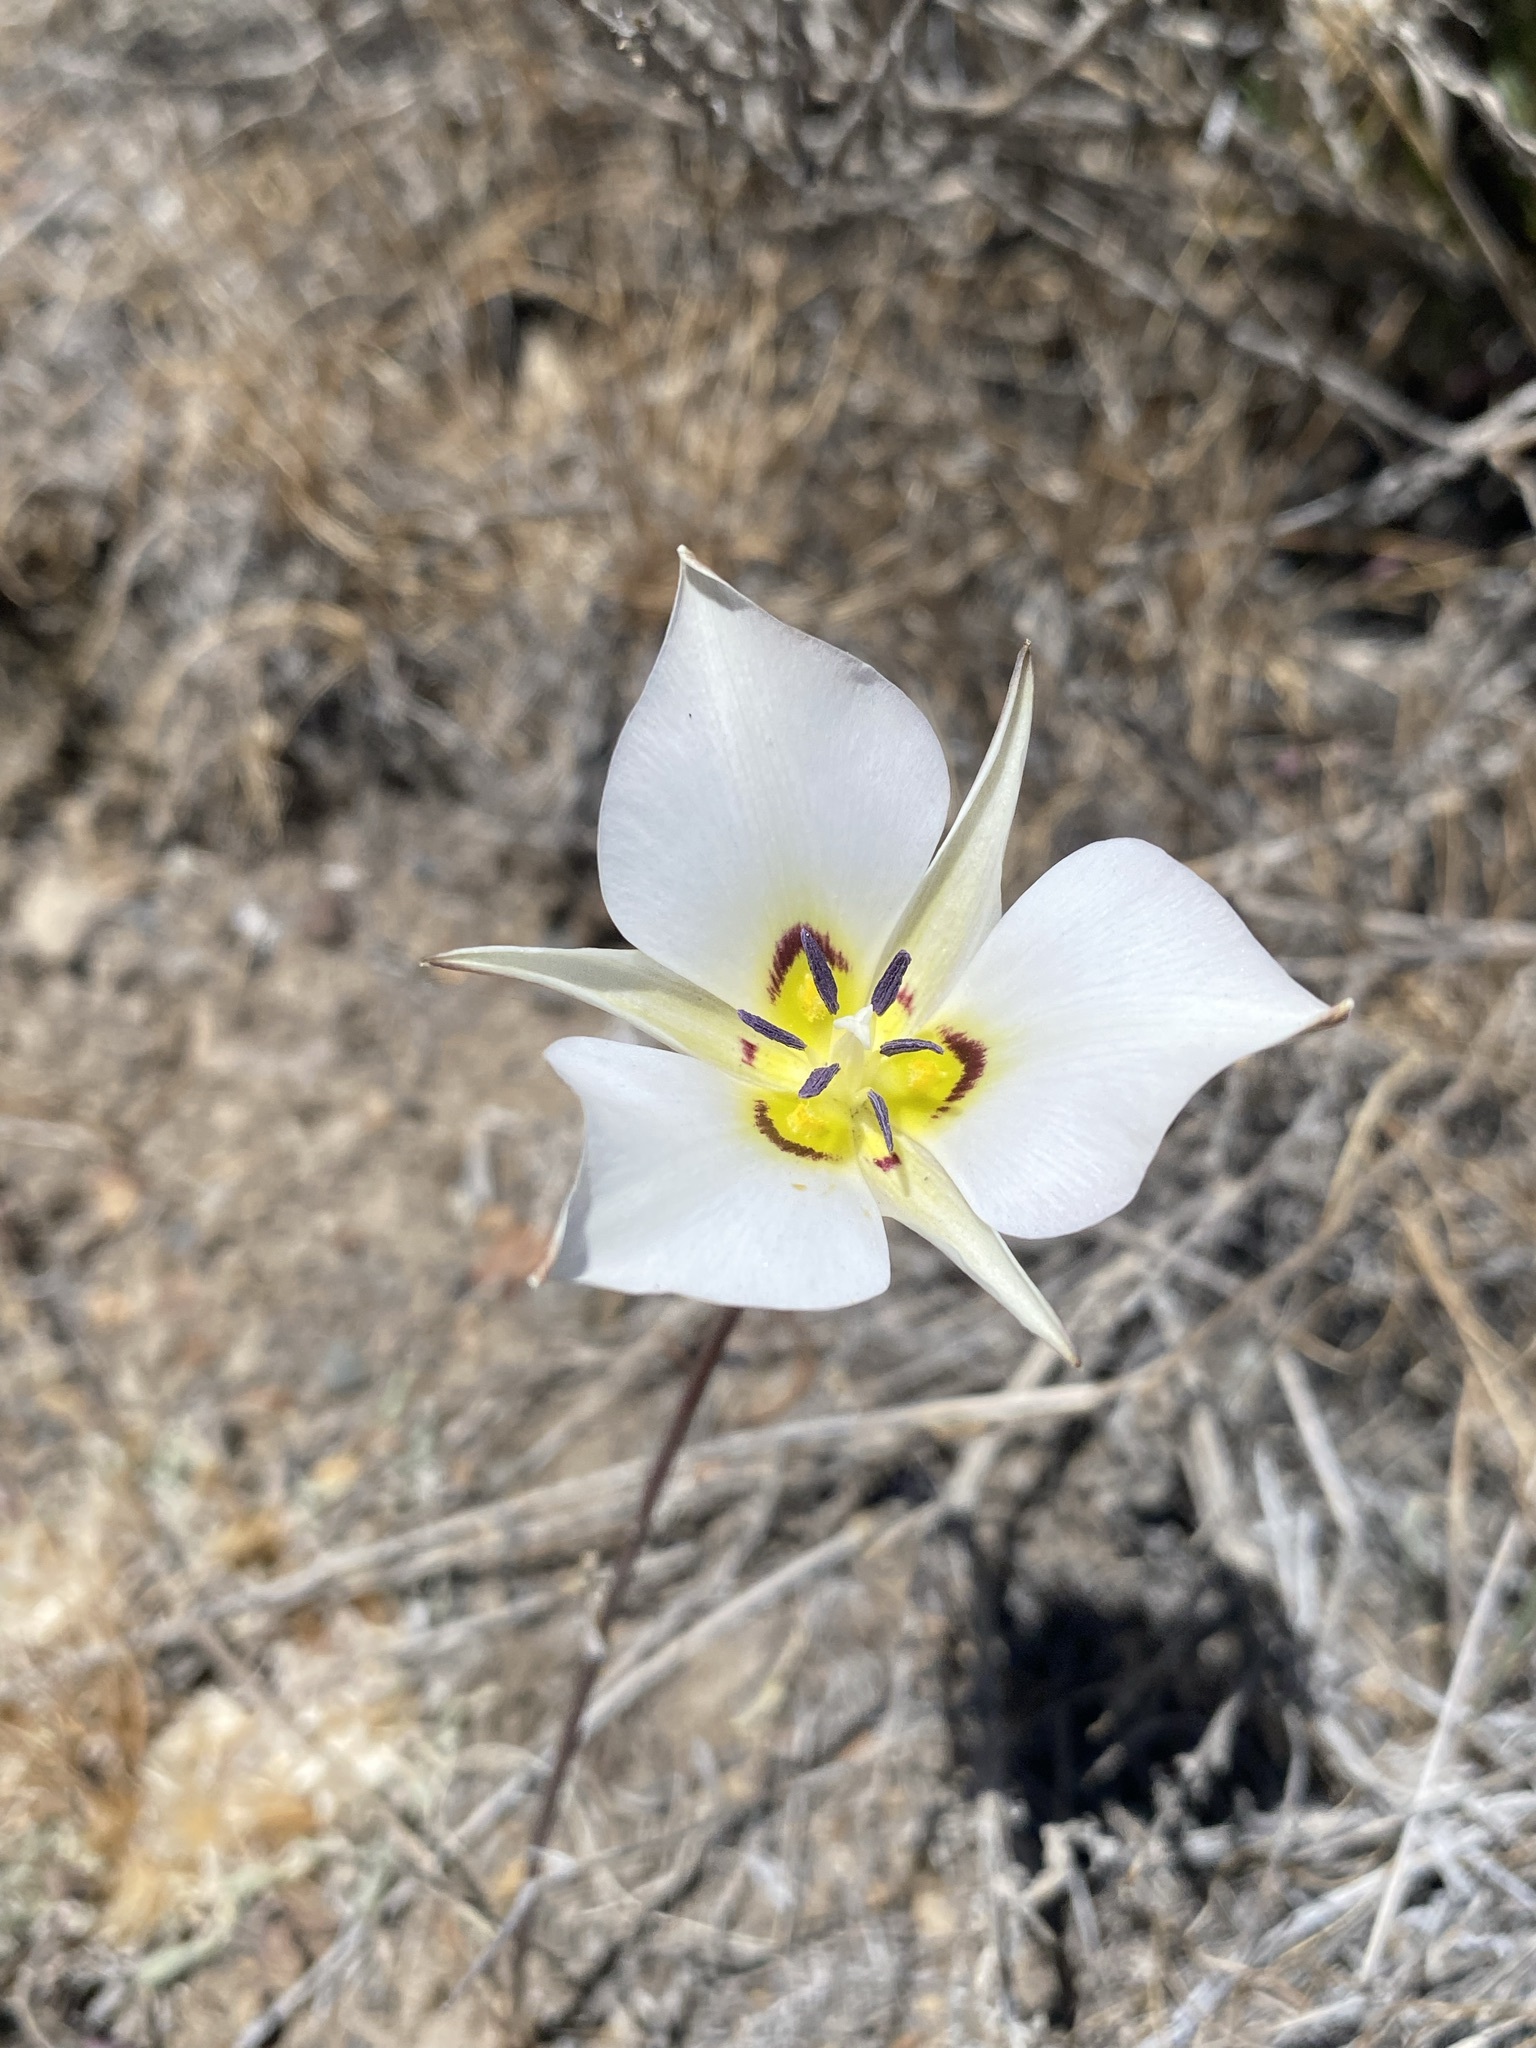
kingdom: Plantae
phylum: Tracheophyta
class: Liliopsida
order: Liliales
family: Liliaceae
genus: Calochortus
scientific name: Calochortus bruneaunis
